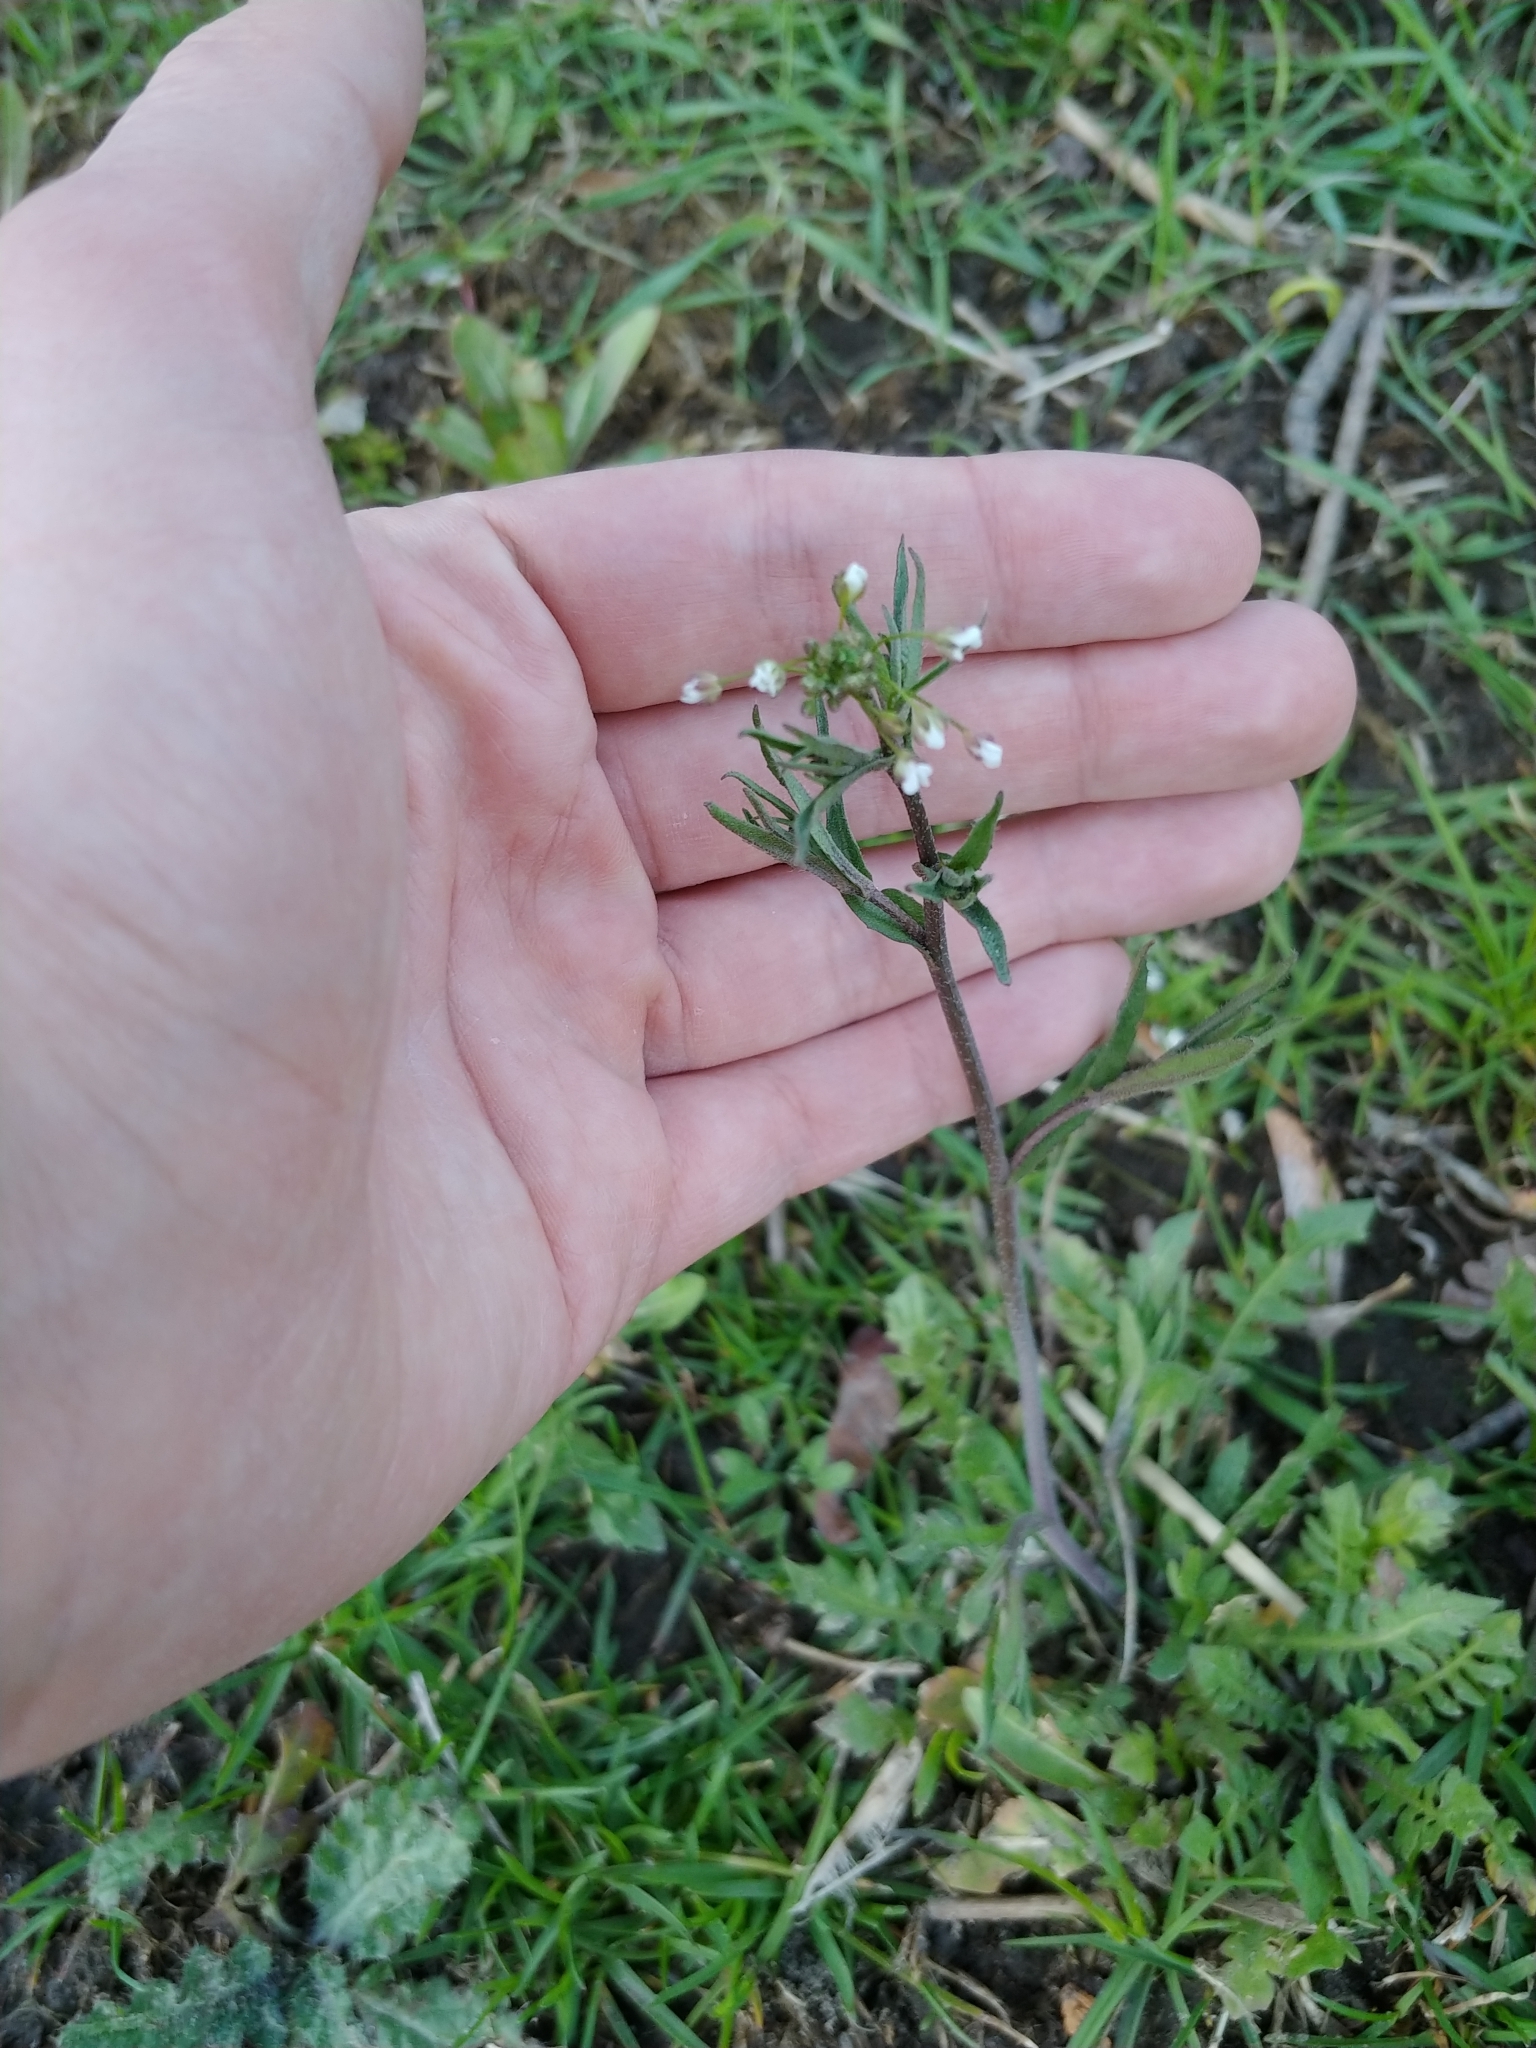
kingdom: Plantae
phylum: Tracheophyta
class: Magnoliopsida
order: Brassicales
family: Brassicaceae
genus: Capsella
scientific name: Capsella bursa-pastoris
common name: Shepherd's purse
